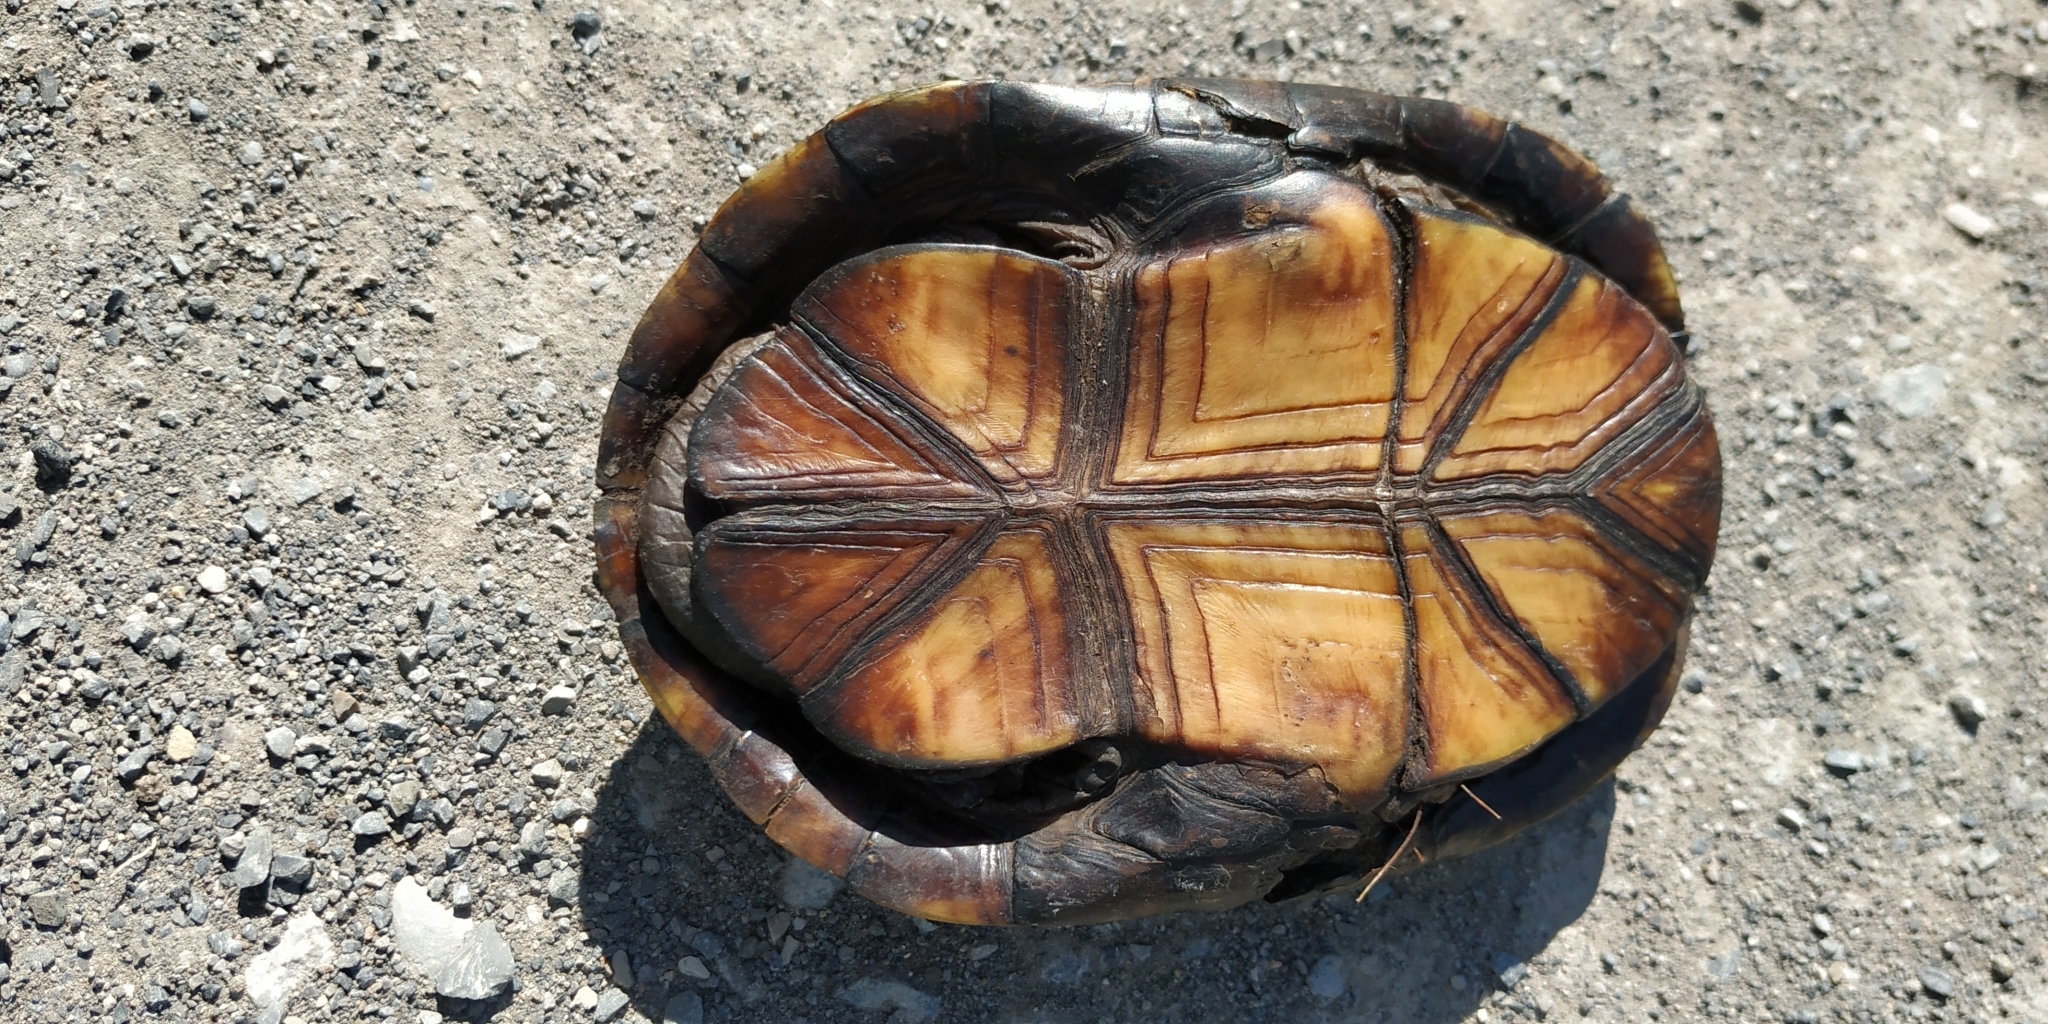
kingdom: Animalia
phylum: Chordata
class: Testudines
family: Kinosternidae
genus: Kinosternon
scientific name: Kinosternon flavescens
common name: Yellow mud turtle
